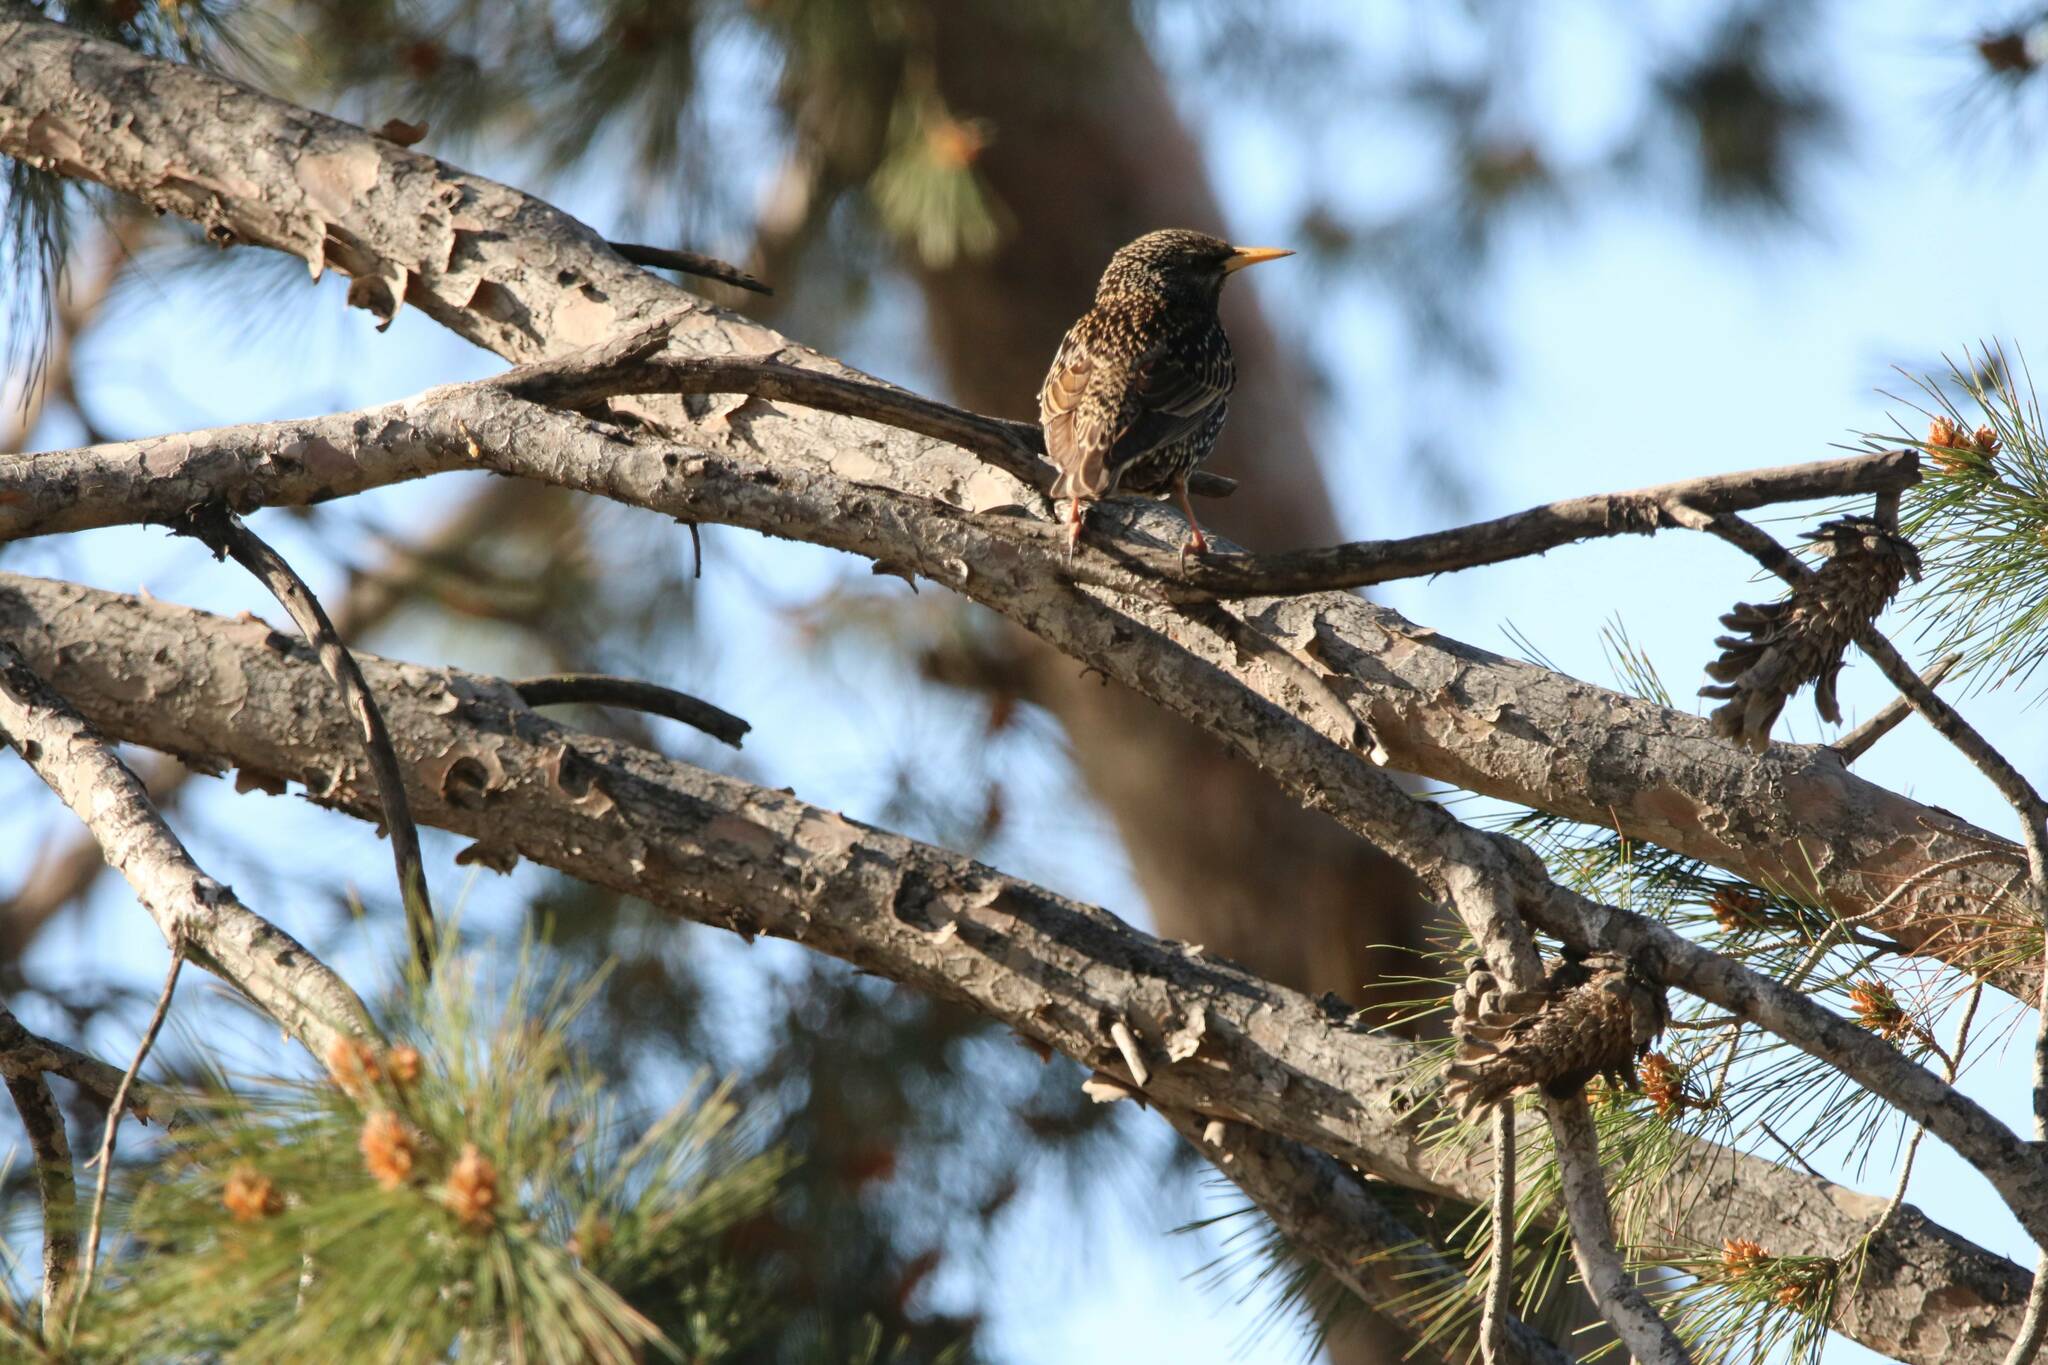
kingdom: Animalia
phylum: Chordata
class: Aves
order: Passeriformes
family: Sturnidae
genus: Sturnus
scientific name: Sturnus vulgaris
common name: Common starling
